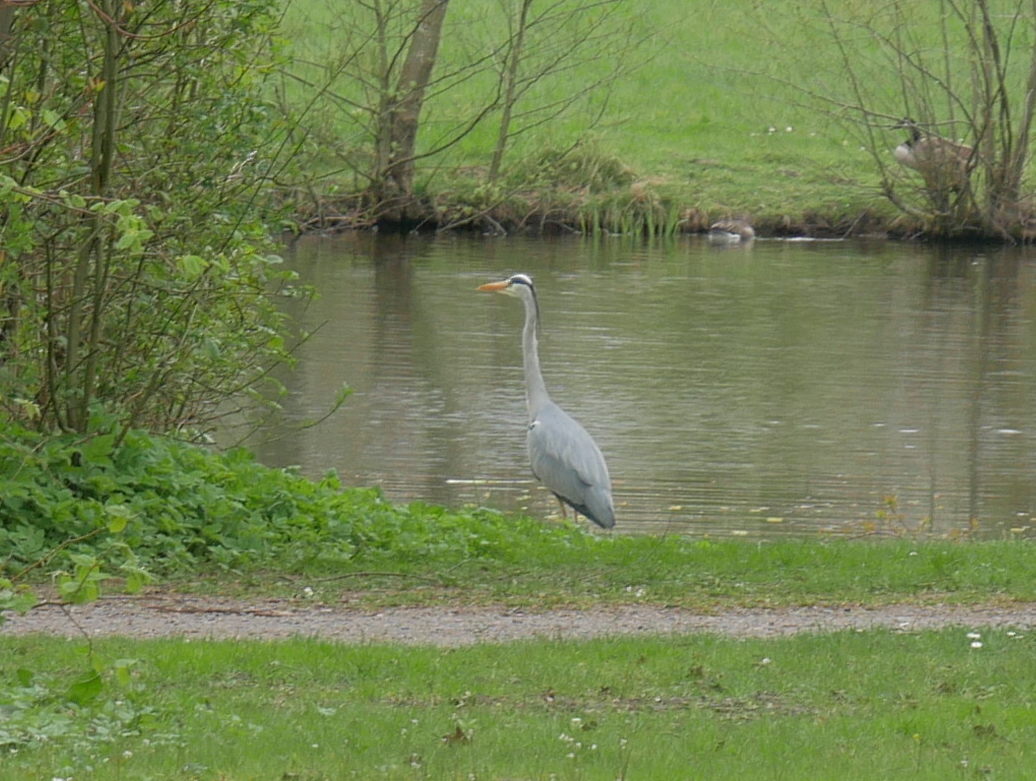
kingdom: Animalia
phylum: Chordata
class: Aves
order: Pelecaniformes
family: Ardeidae
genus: Ardea
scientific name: Ardea cinerea
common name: Grey heron
